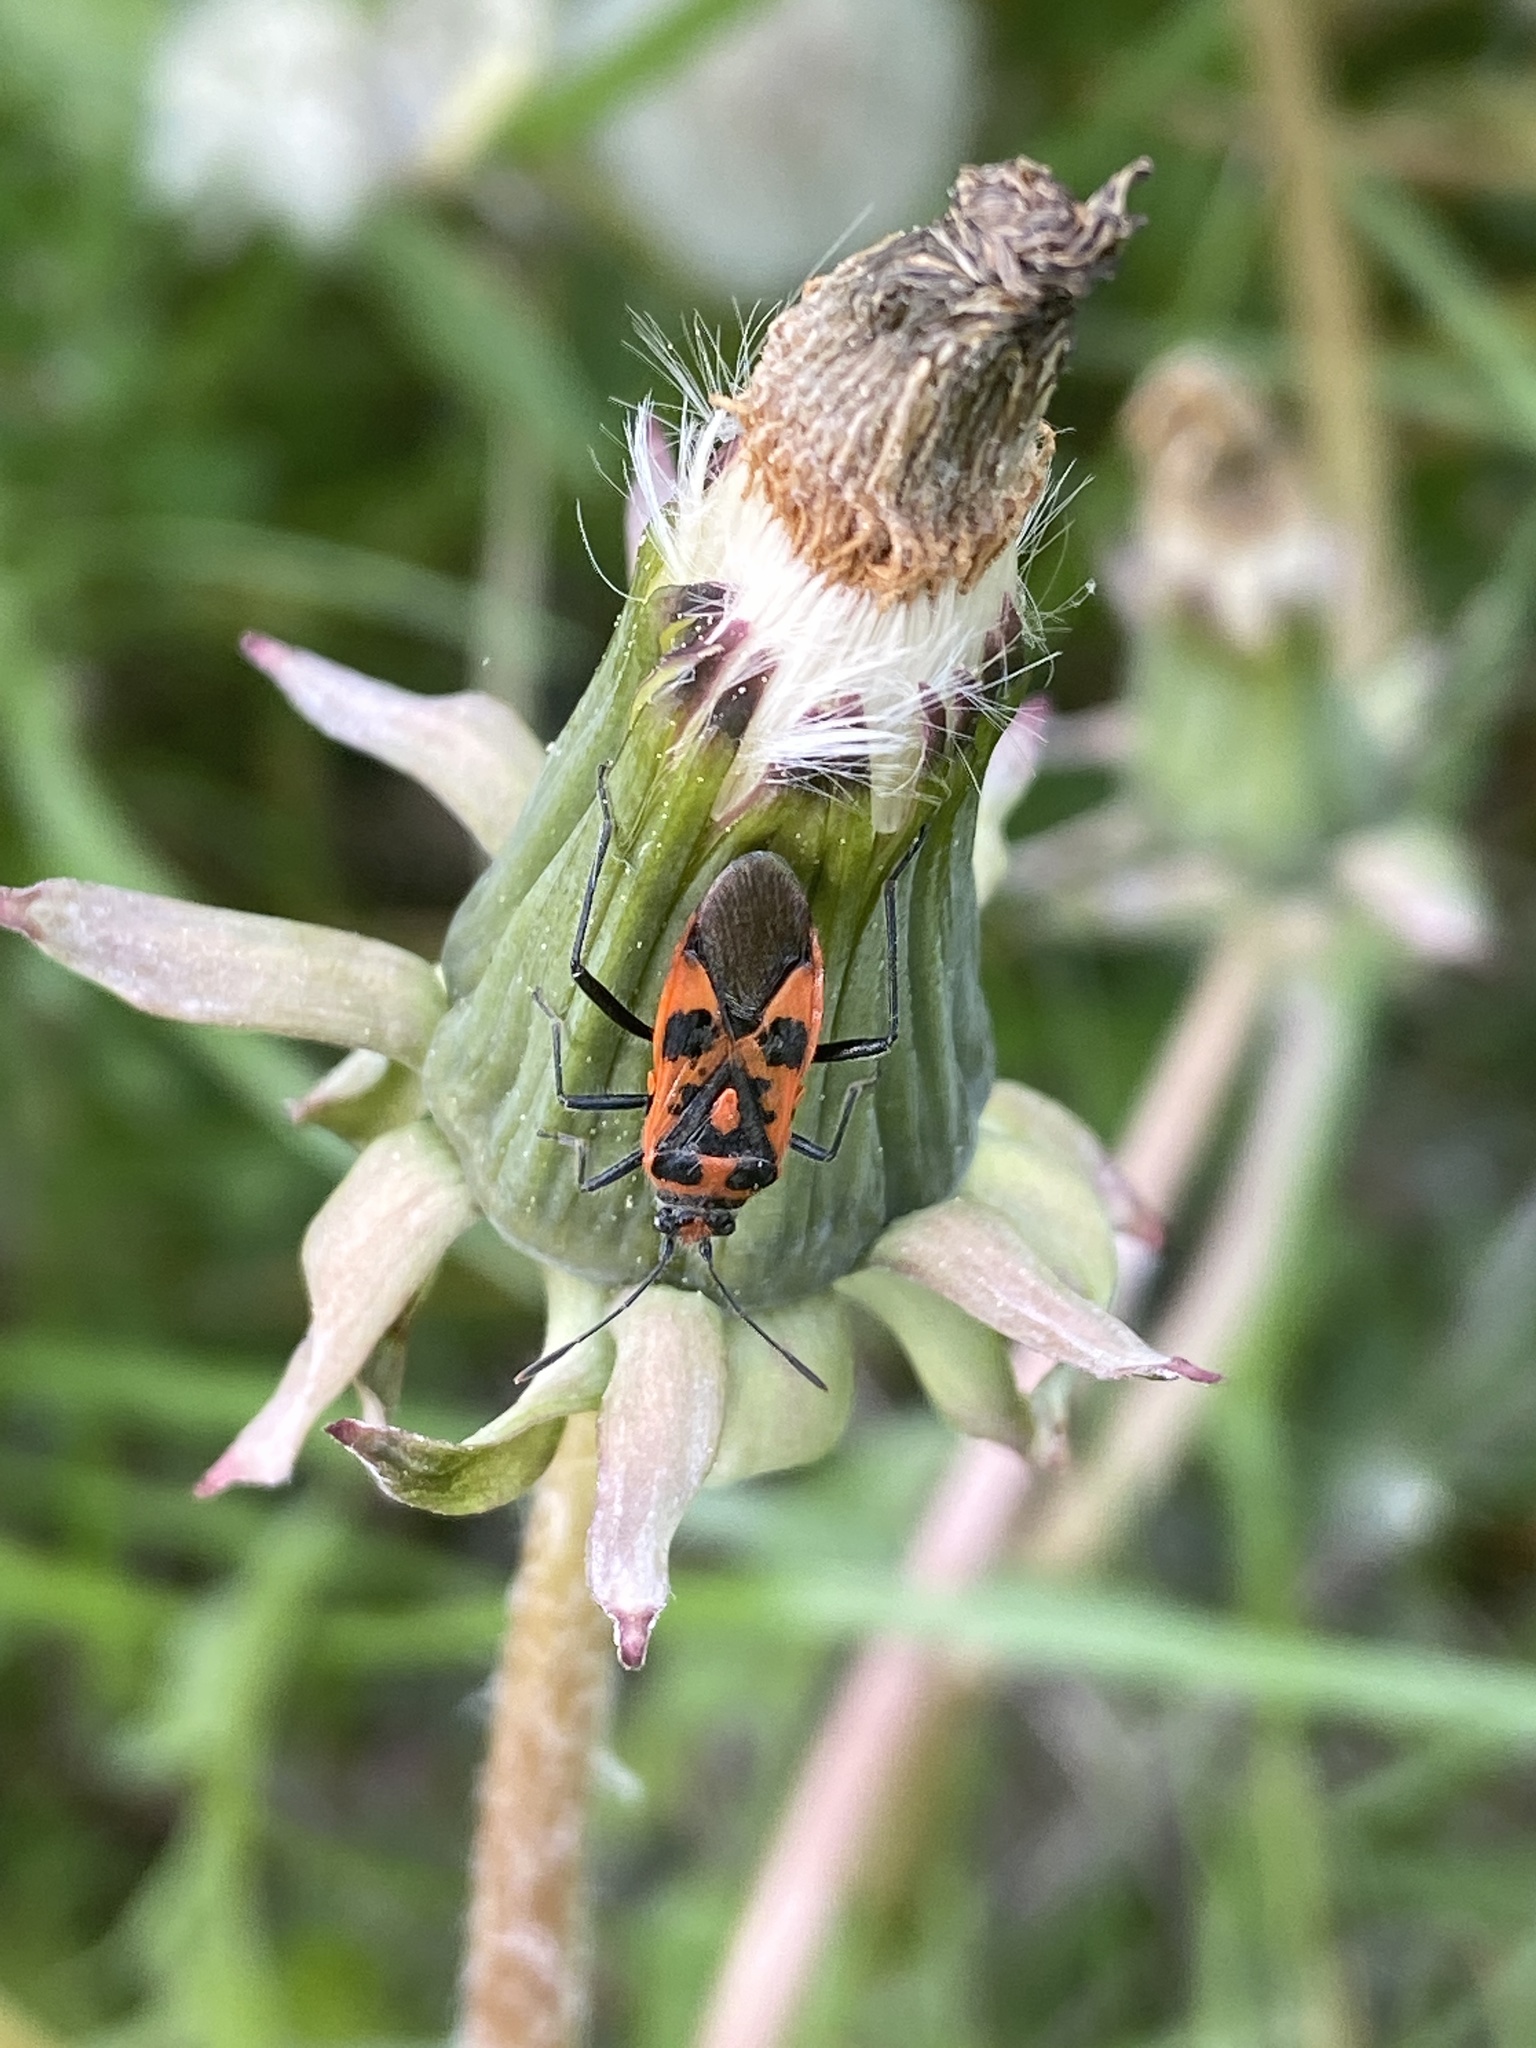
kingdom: Animalia
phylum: Arthropoda
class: Insecta
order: Hemiptera
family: Rhopalidae
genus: Corizus
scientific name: Corizus hyoscyami
